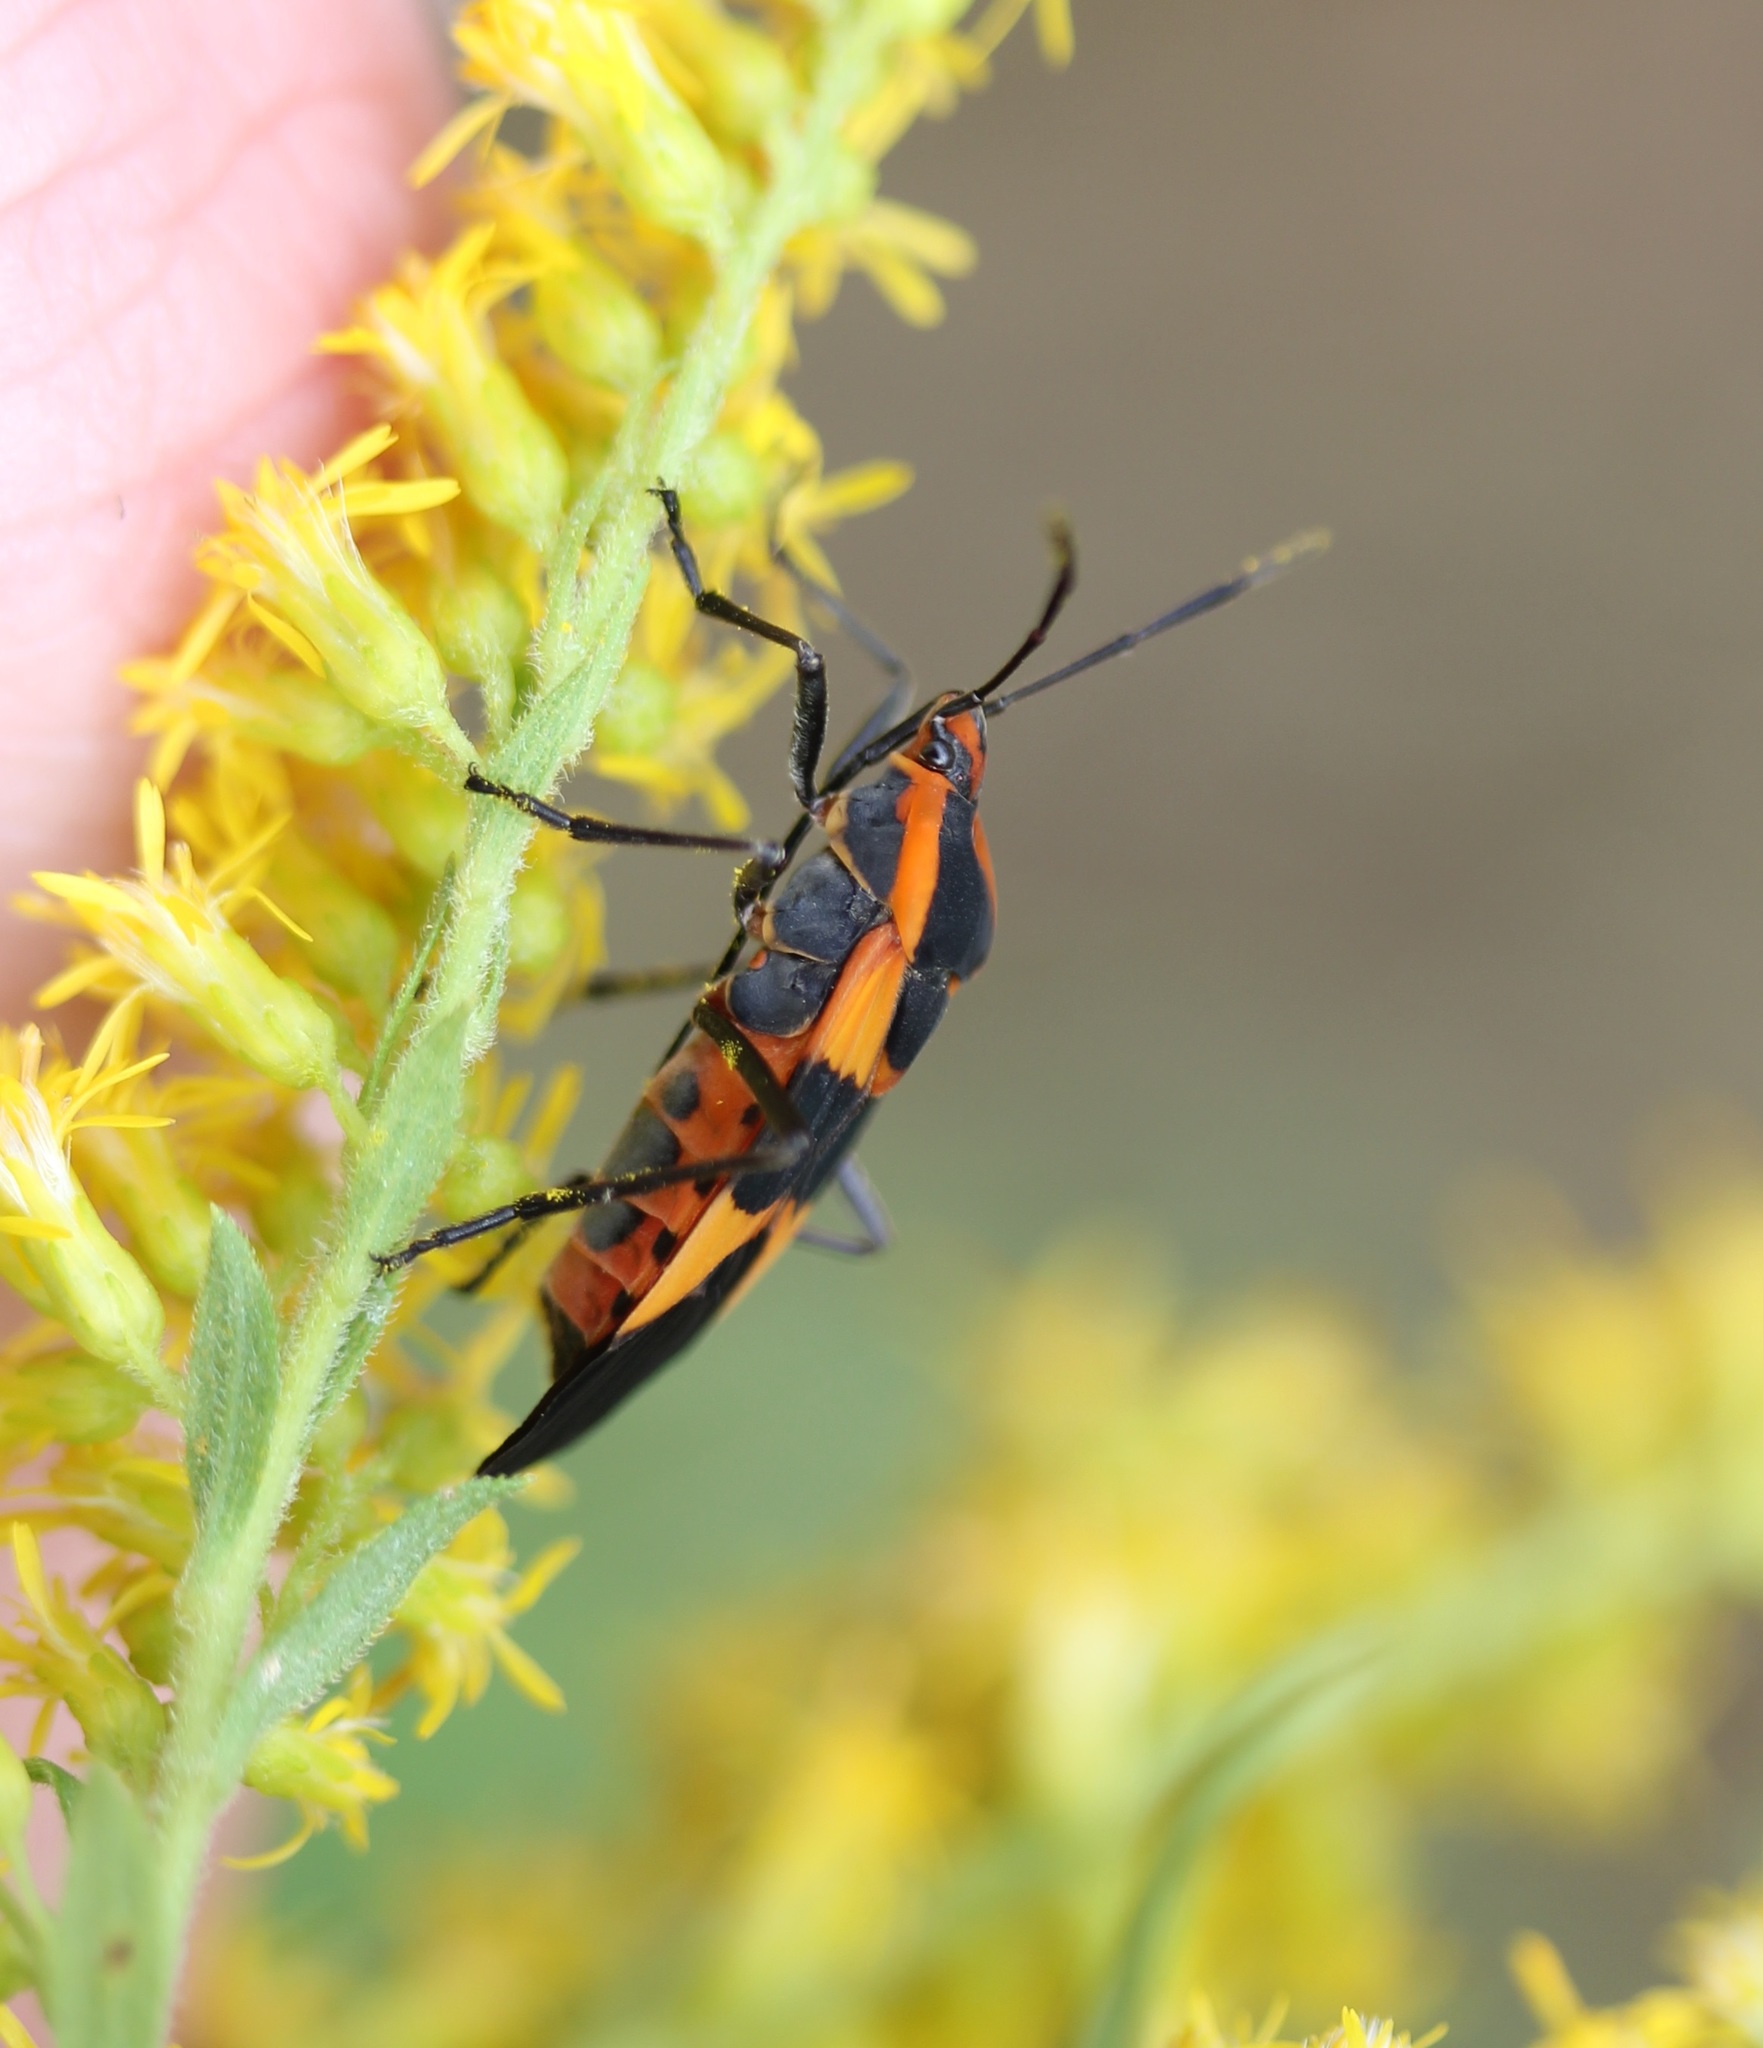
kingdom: Animalia
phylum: Arthropoda
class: Insecta
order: Hemiptera
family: Lygaeidae
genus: Oncopeltus
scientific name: Oncopeltus fasciatus
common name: Large milkweed bug
